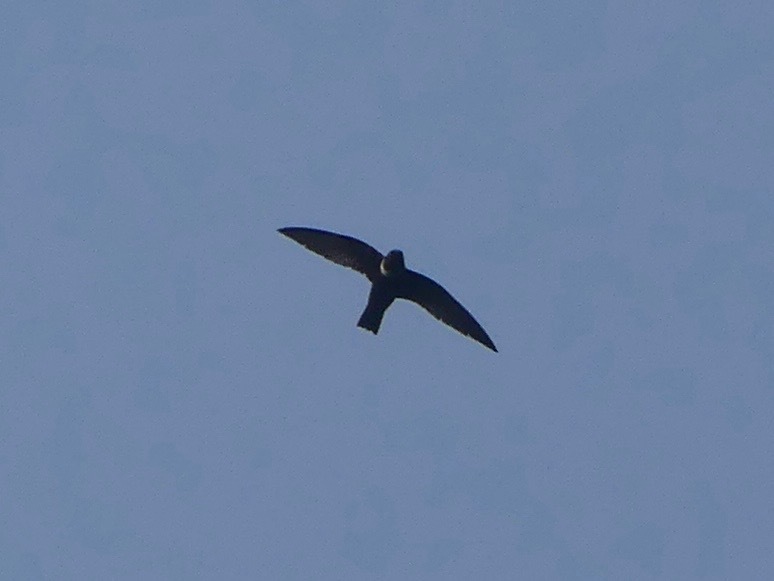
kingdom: Animalia
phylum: Chordata
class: Aves
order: Apodiformes
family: Apodidae
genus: Streptoprocne
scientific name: Streptoprocne zonaris
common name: White-collared swift
